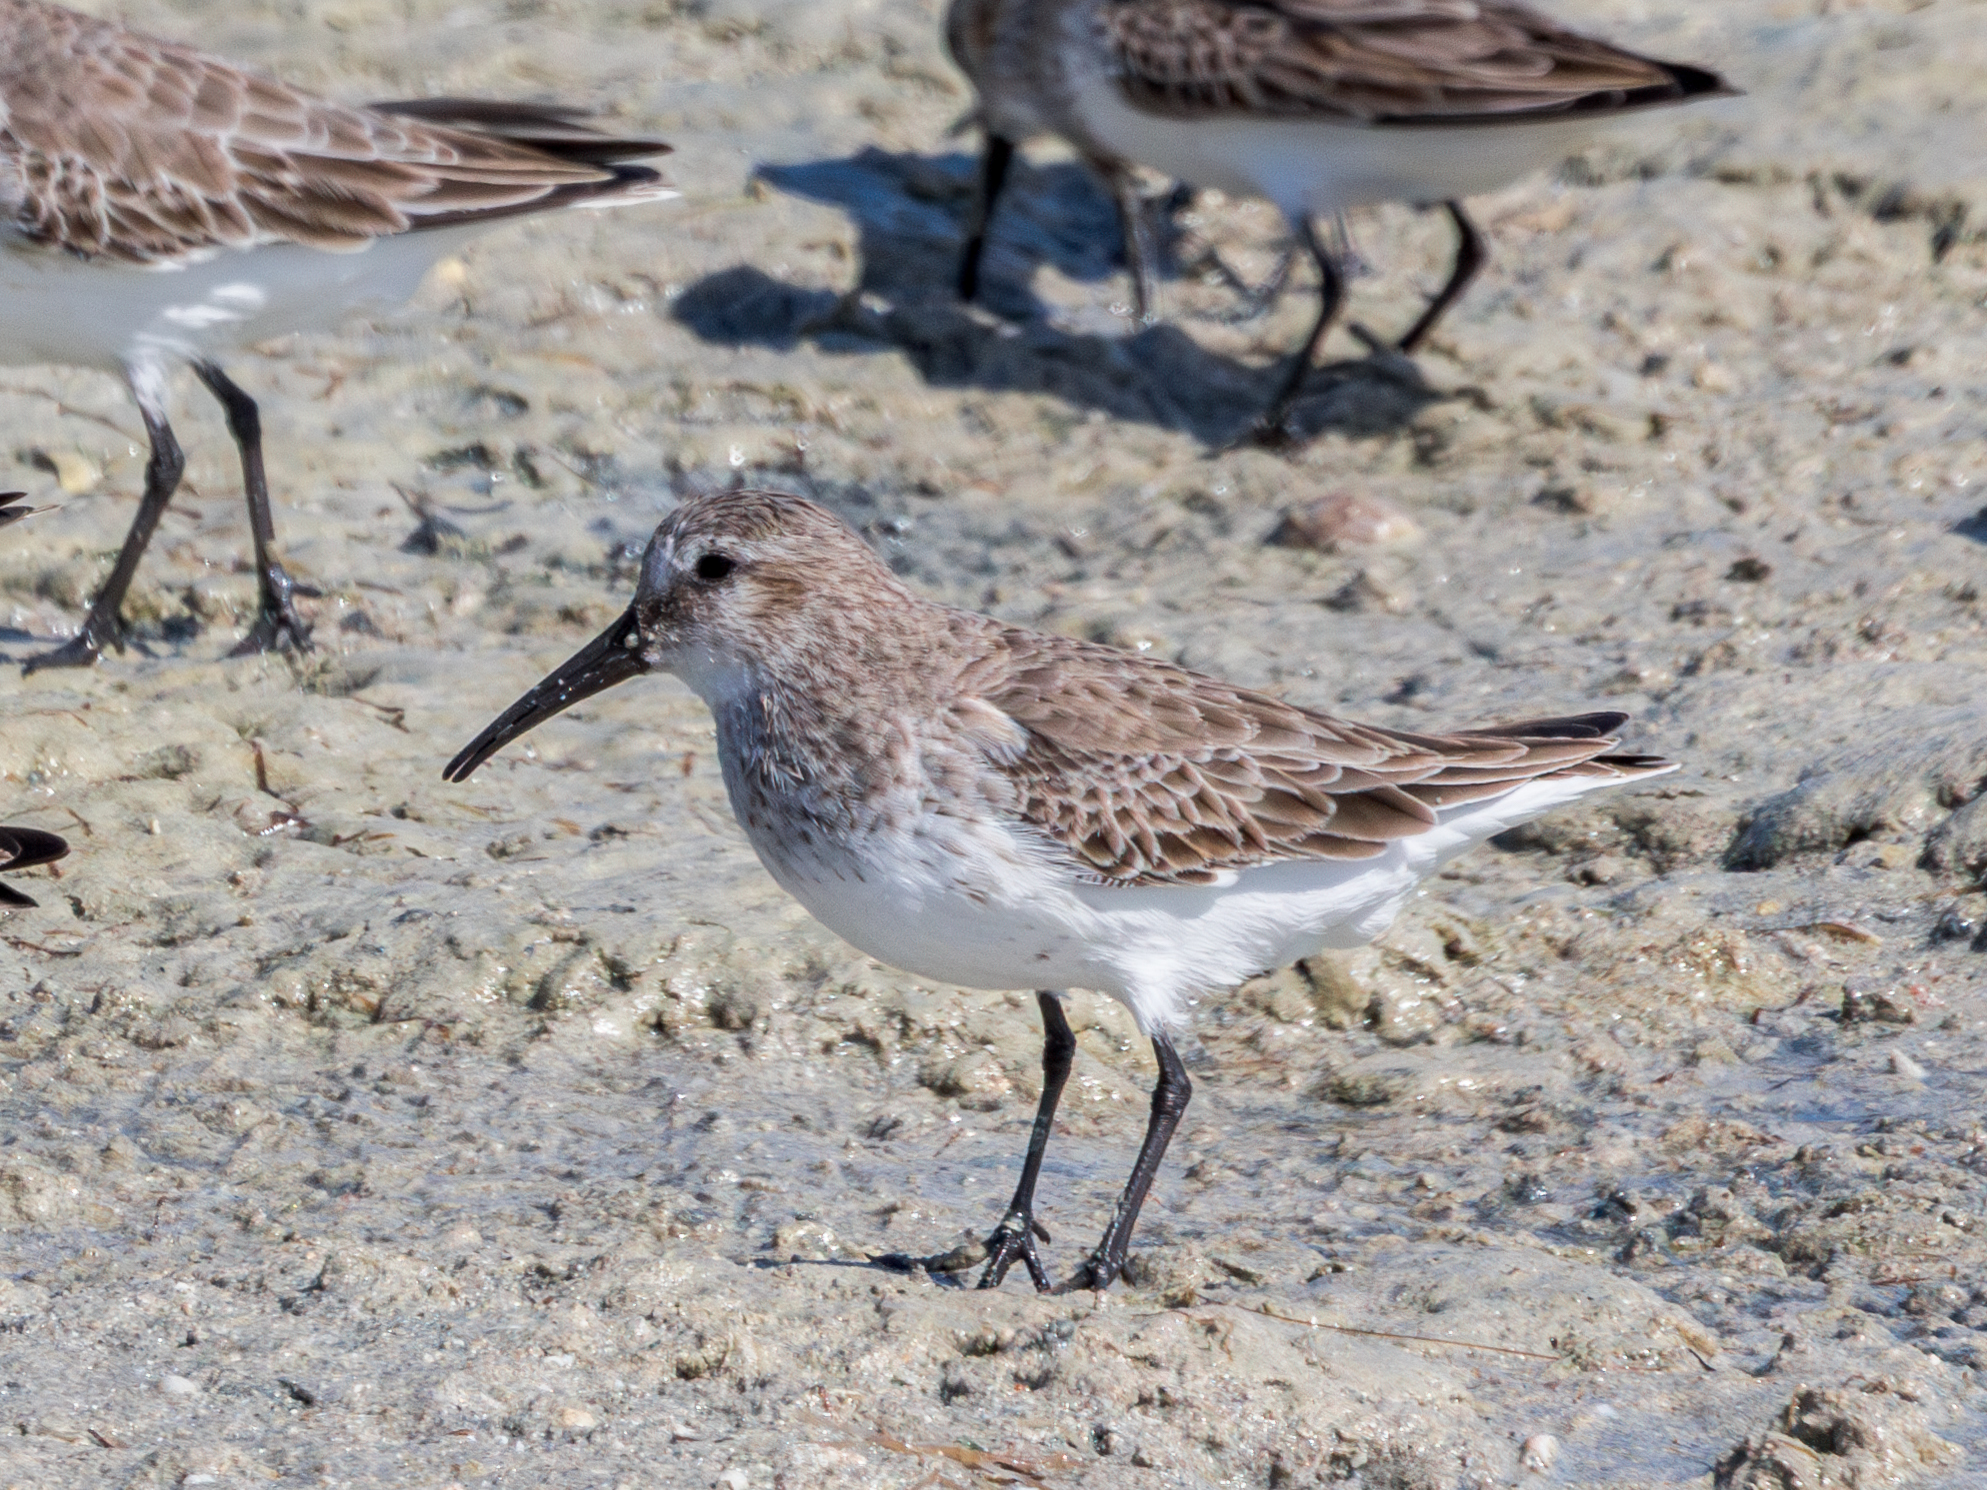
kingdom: Animalia
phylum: Chordata
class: Aves
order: Charadriiformes
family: Scolopacidae
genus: Calidris
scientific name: Calidris alpina
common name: Dunlin
